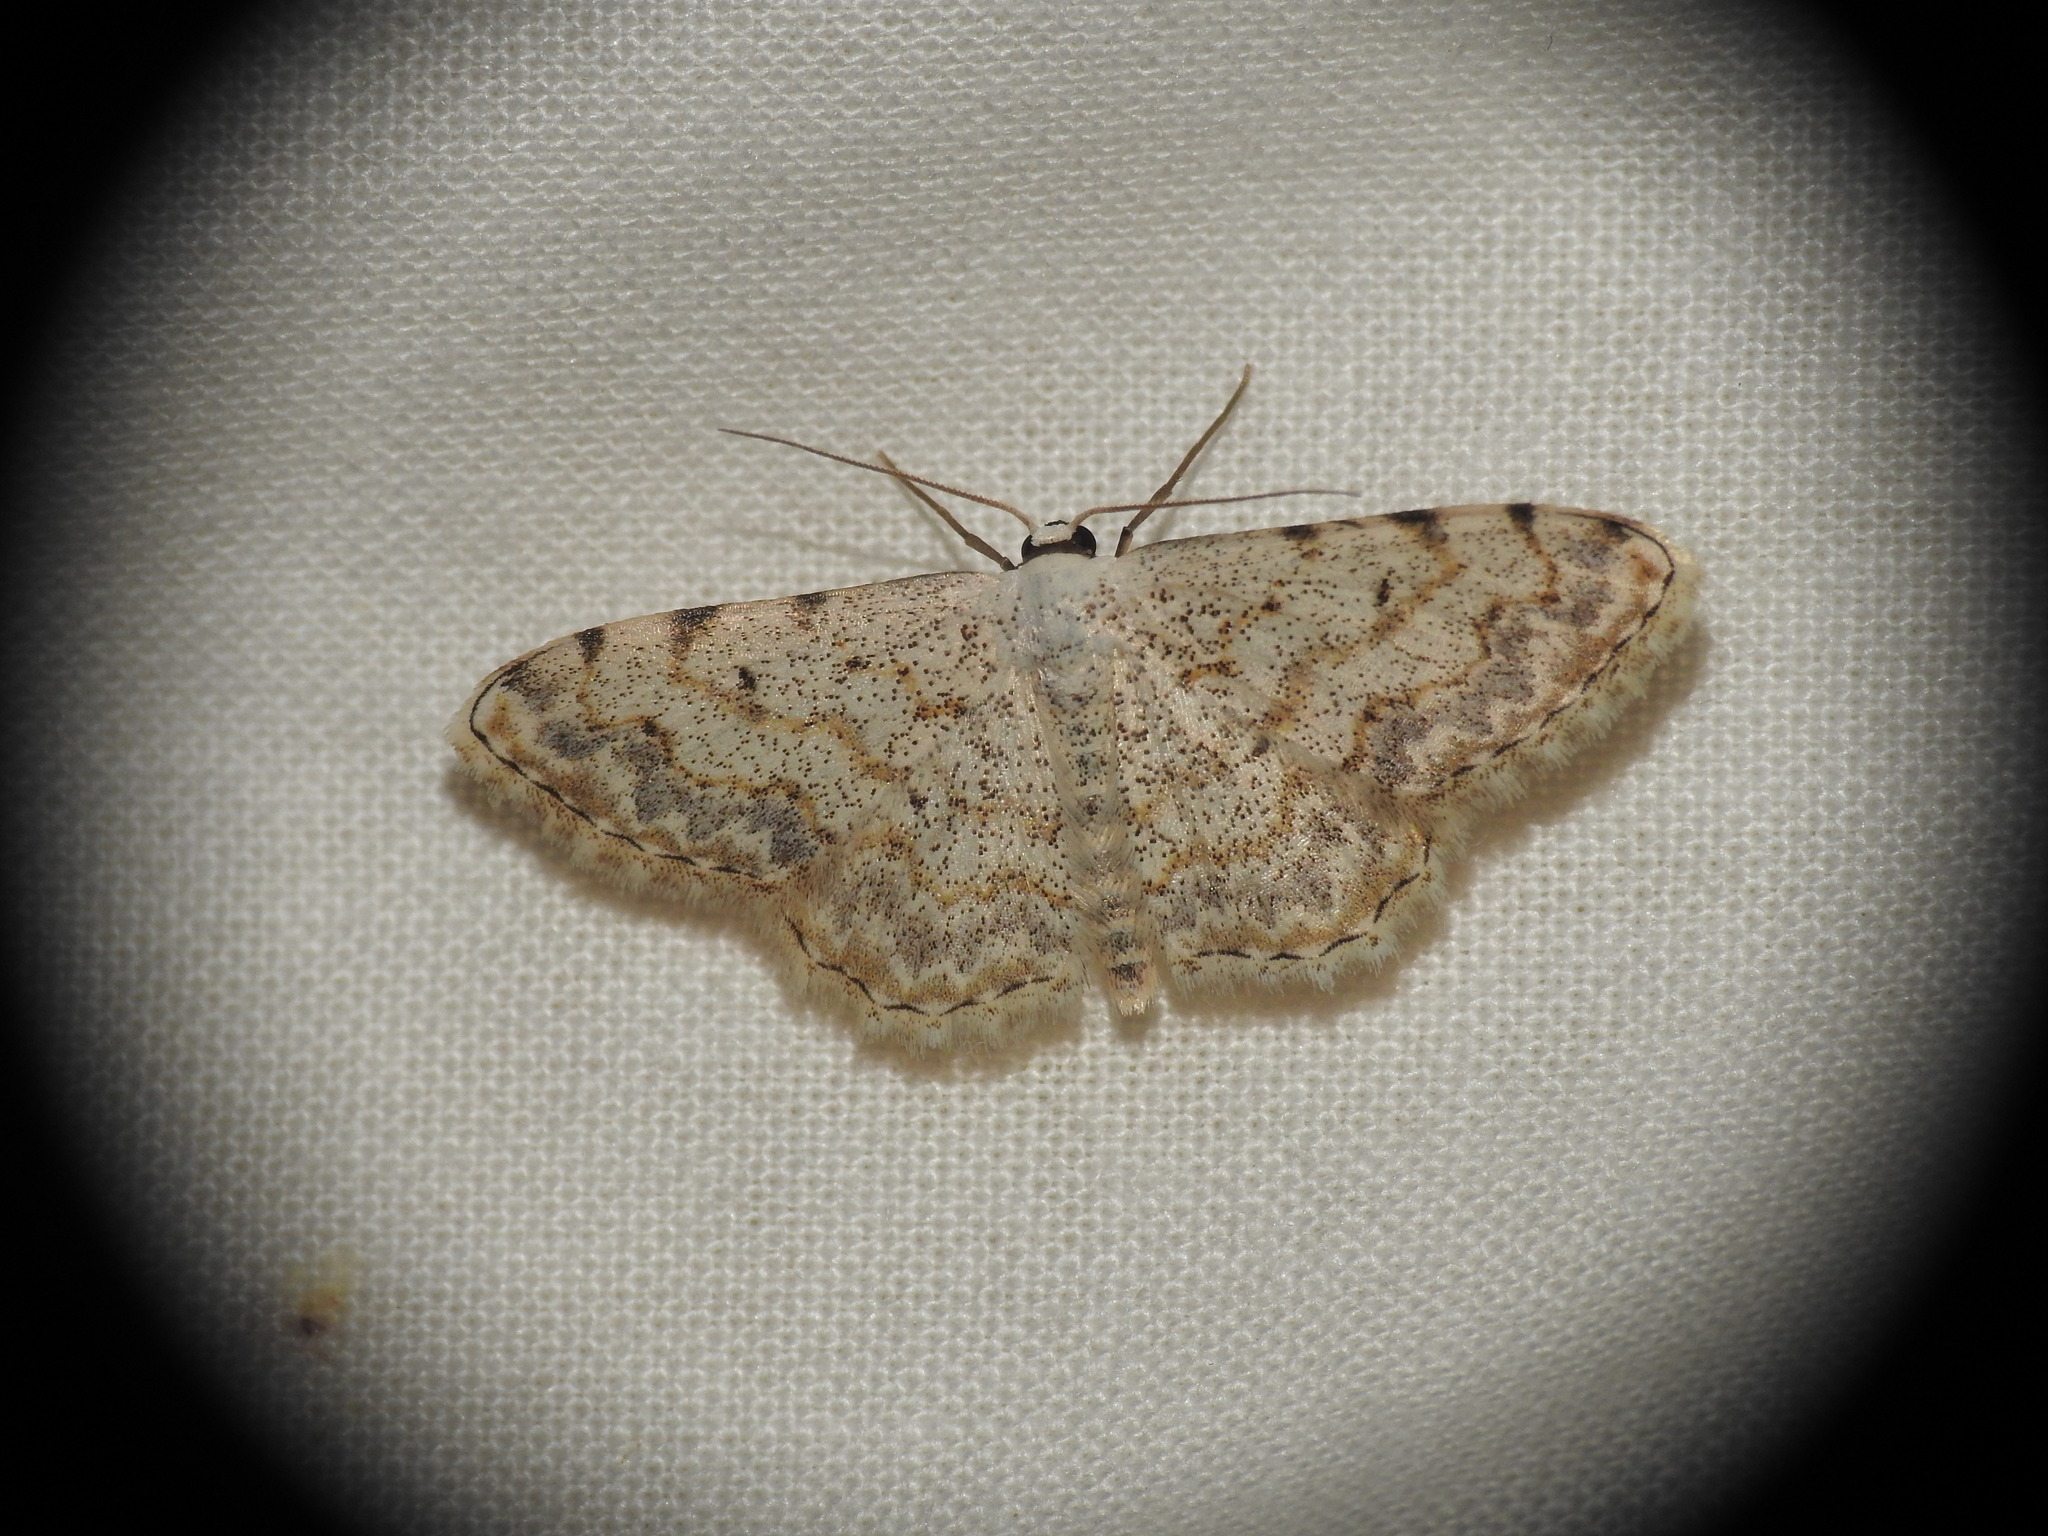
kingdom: Animalia
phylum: Arthropoda
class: Insecta
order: Lepidoptera
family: Geometridae
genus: Scopula
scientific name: Scopula submutata
